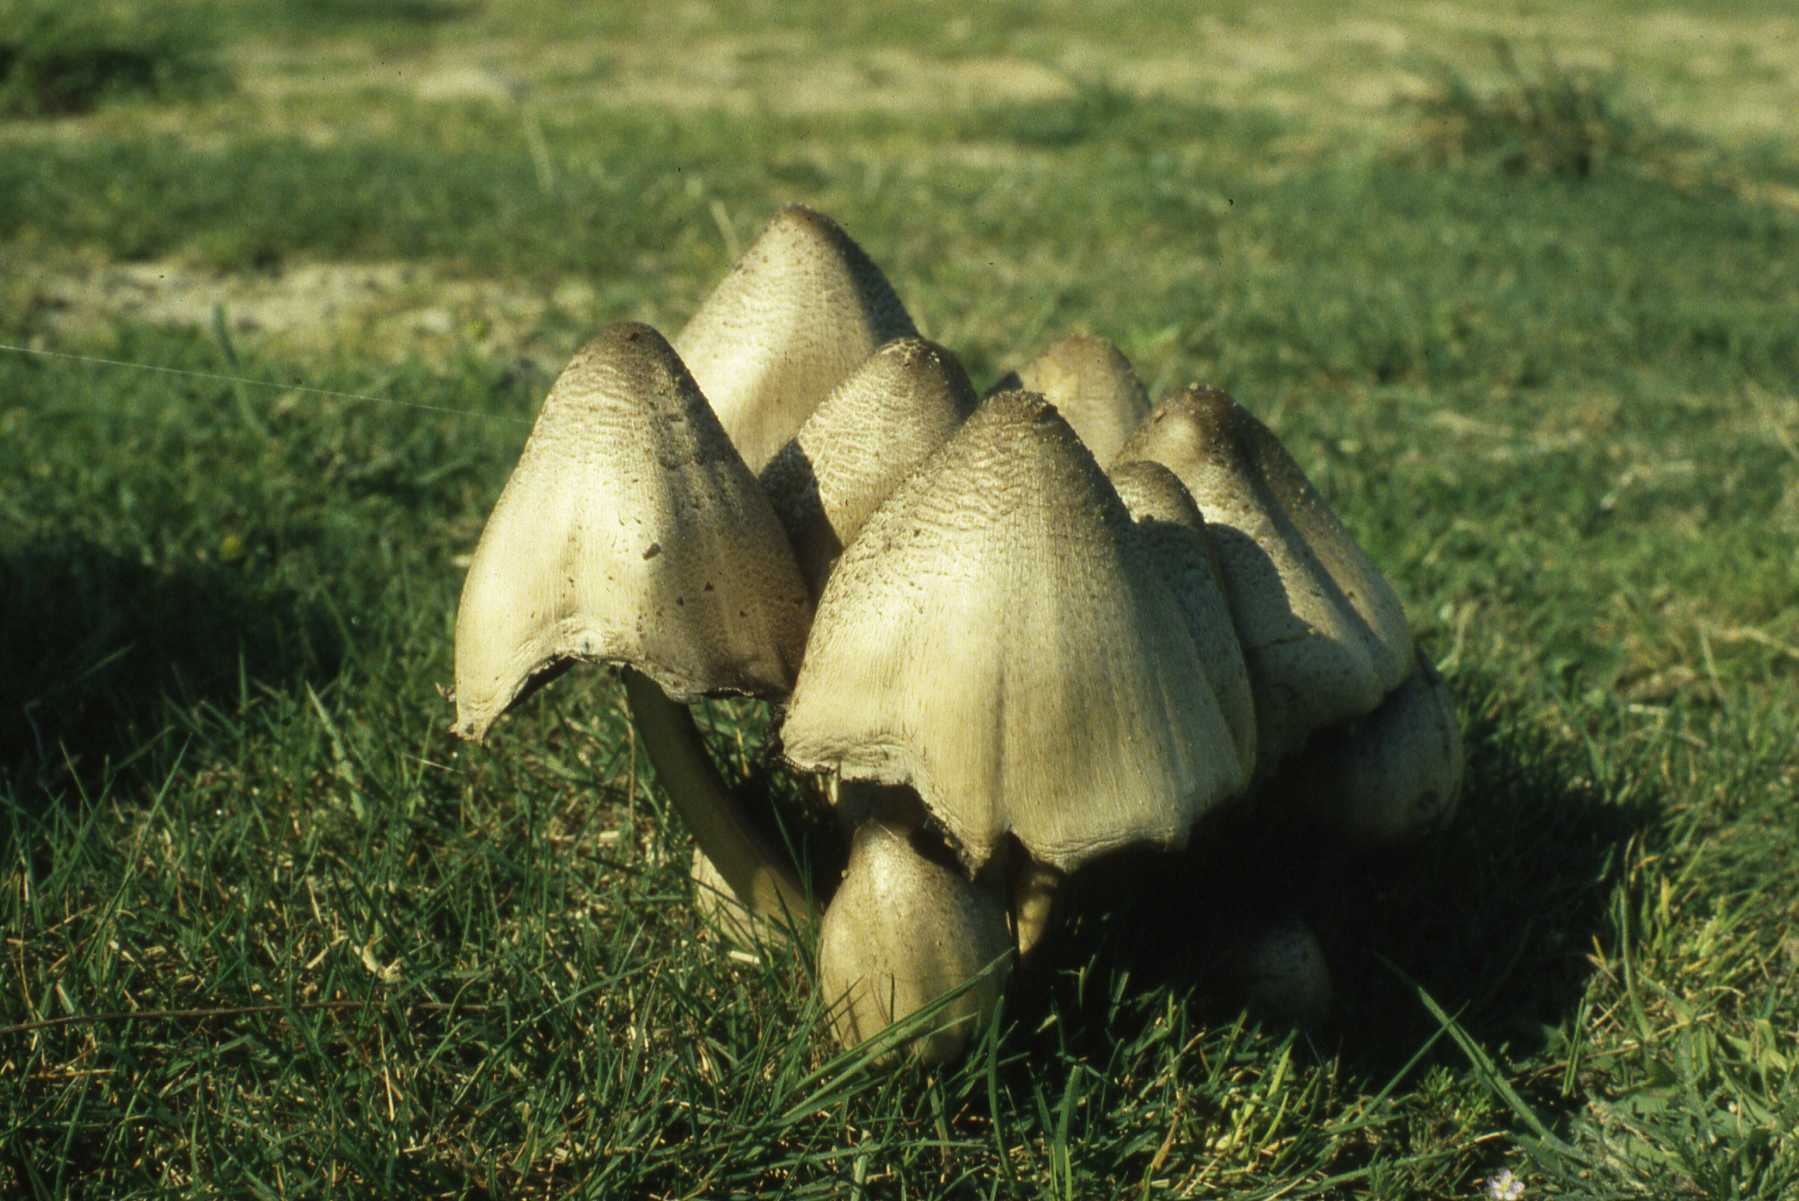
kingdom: Fungi
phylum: Basidiomycota
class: Agaricomycetes
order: Agaricales
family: Psathyrellaceae
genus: Coprinopsis
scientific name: Coprinopsis acuminata
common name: Humpback inkcap
